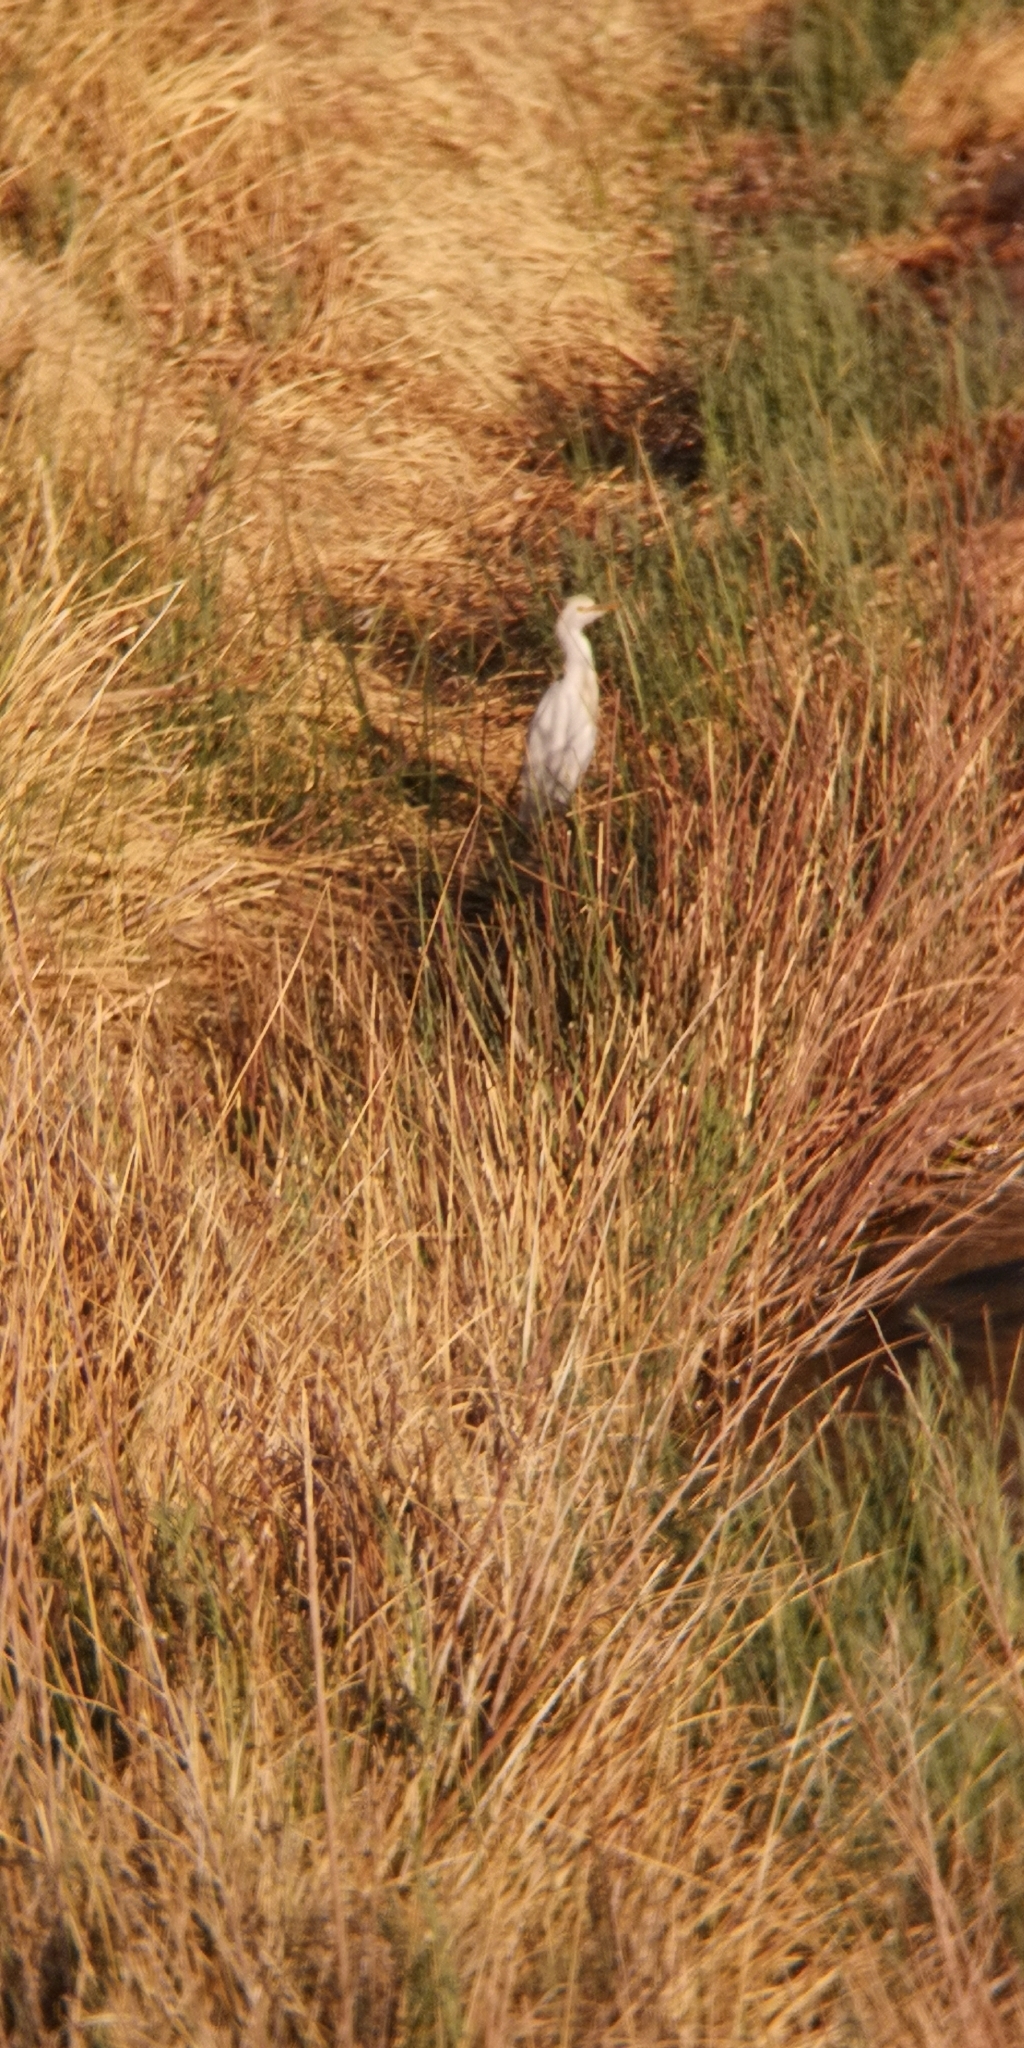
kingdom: Animalia
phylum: Chordata
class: Aves
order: Pelecaniformes
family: Ardeidae
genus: Bubulcus
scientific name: Bubulcus ibis
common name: Cattle egret
